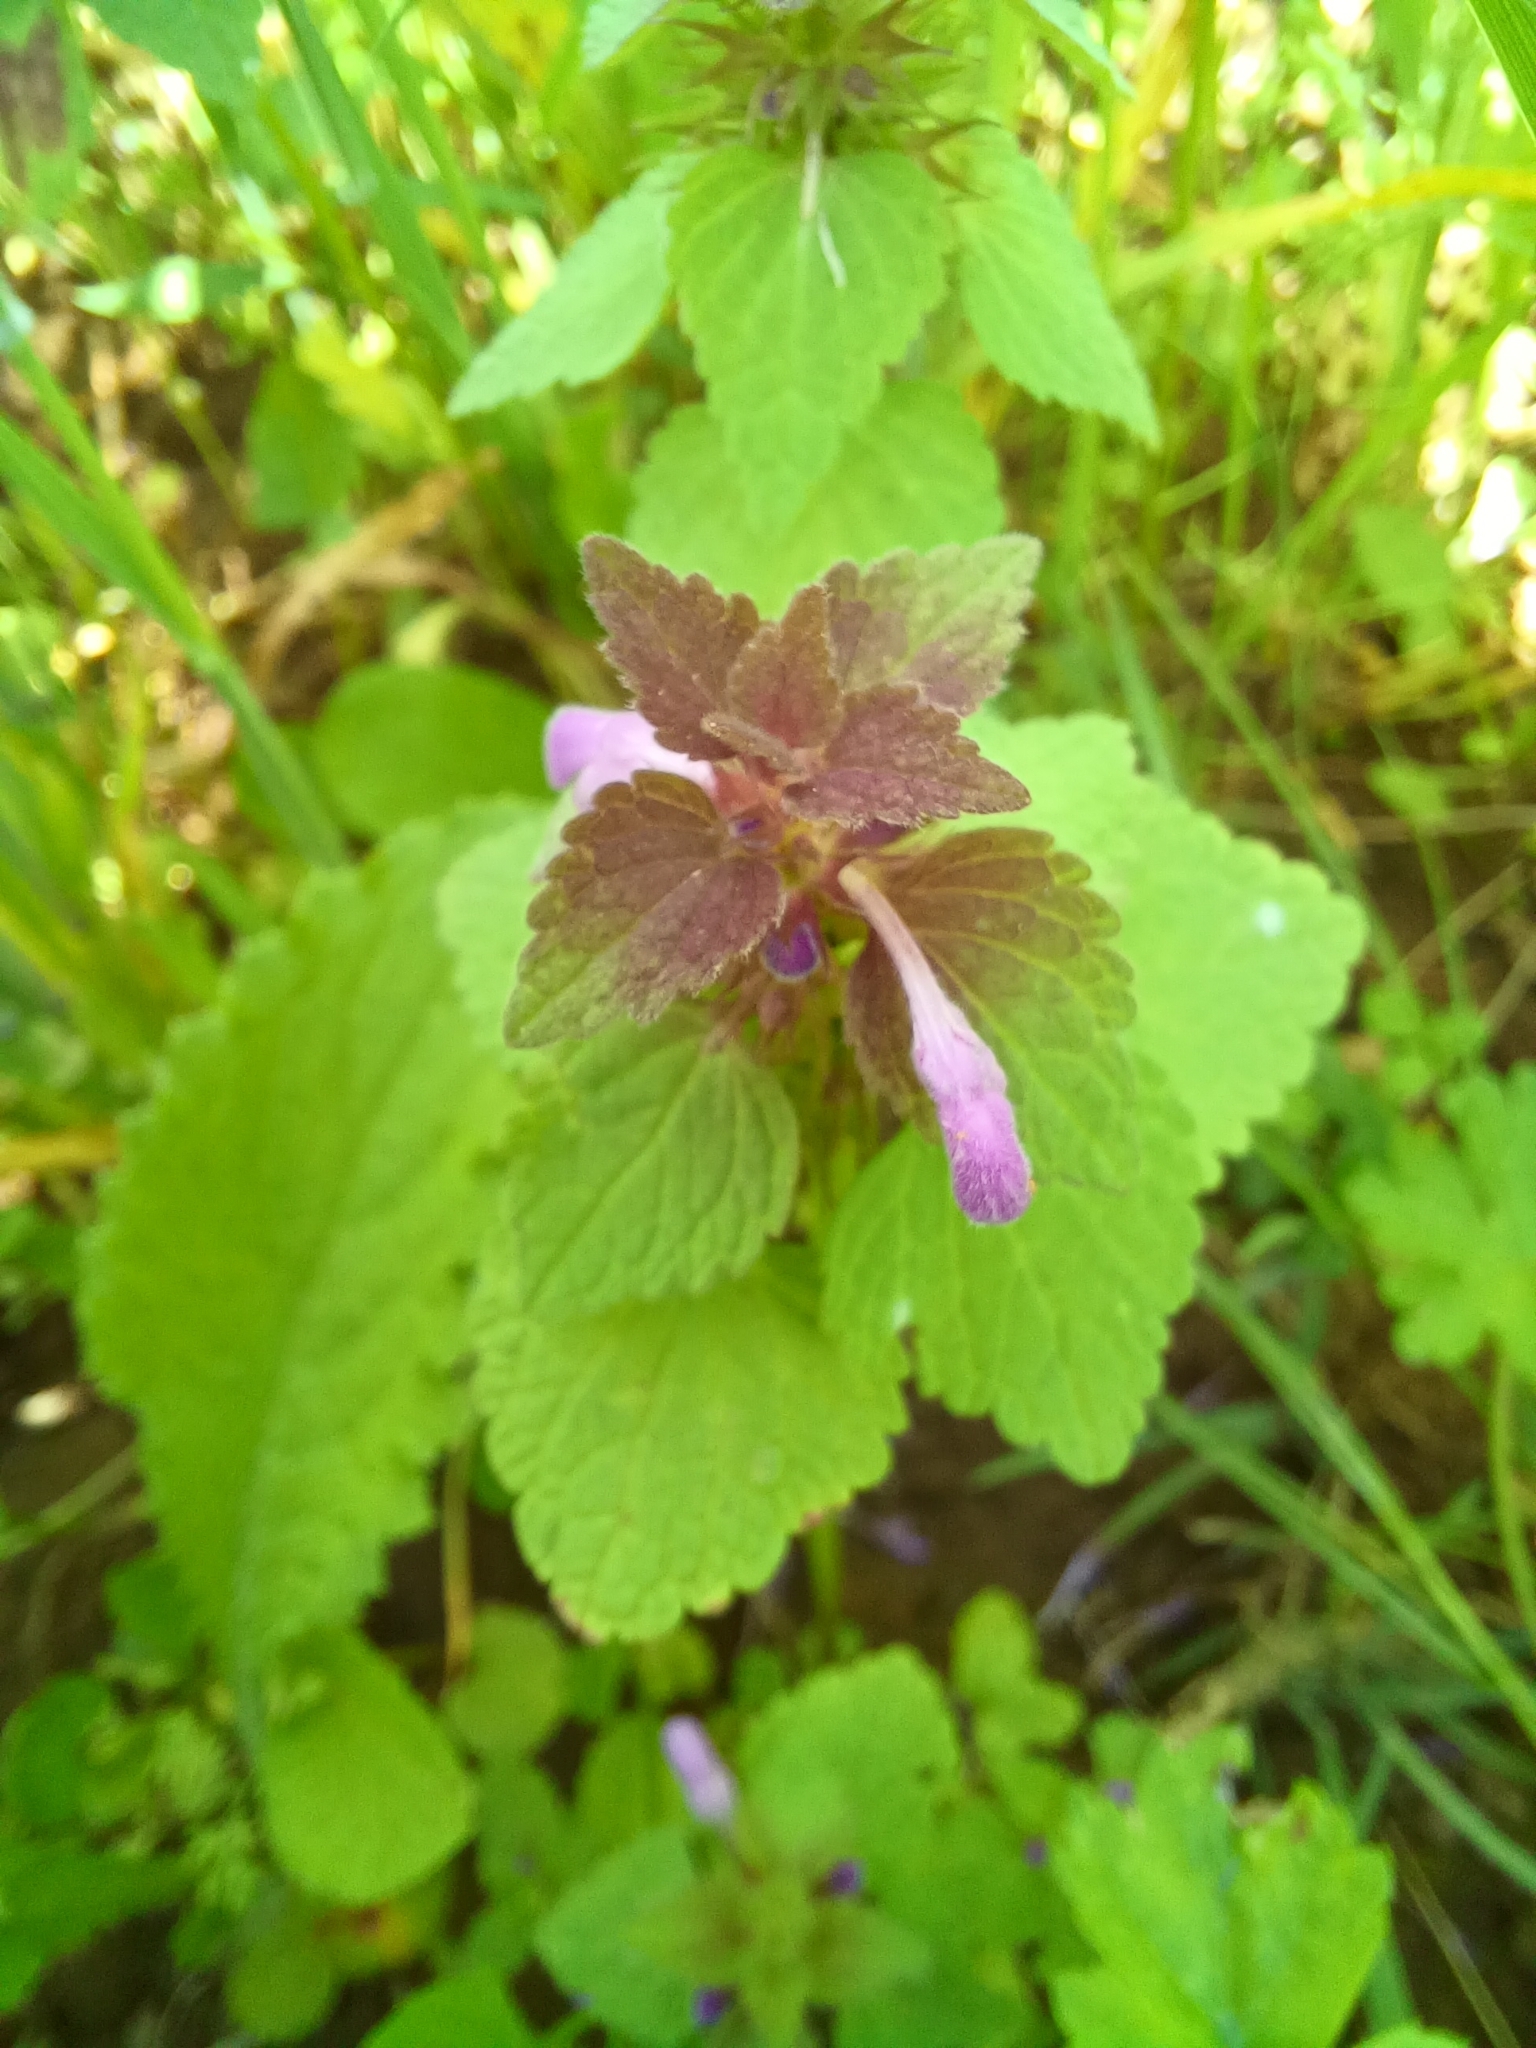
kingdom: Plantae
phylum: Tracheophyta
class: Magnoliopsida
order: Lamiales
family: Lamiaceae
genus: Lamium
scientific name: Lamium purpureum
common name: Red dead-nettle
